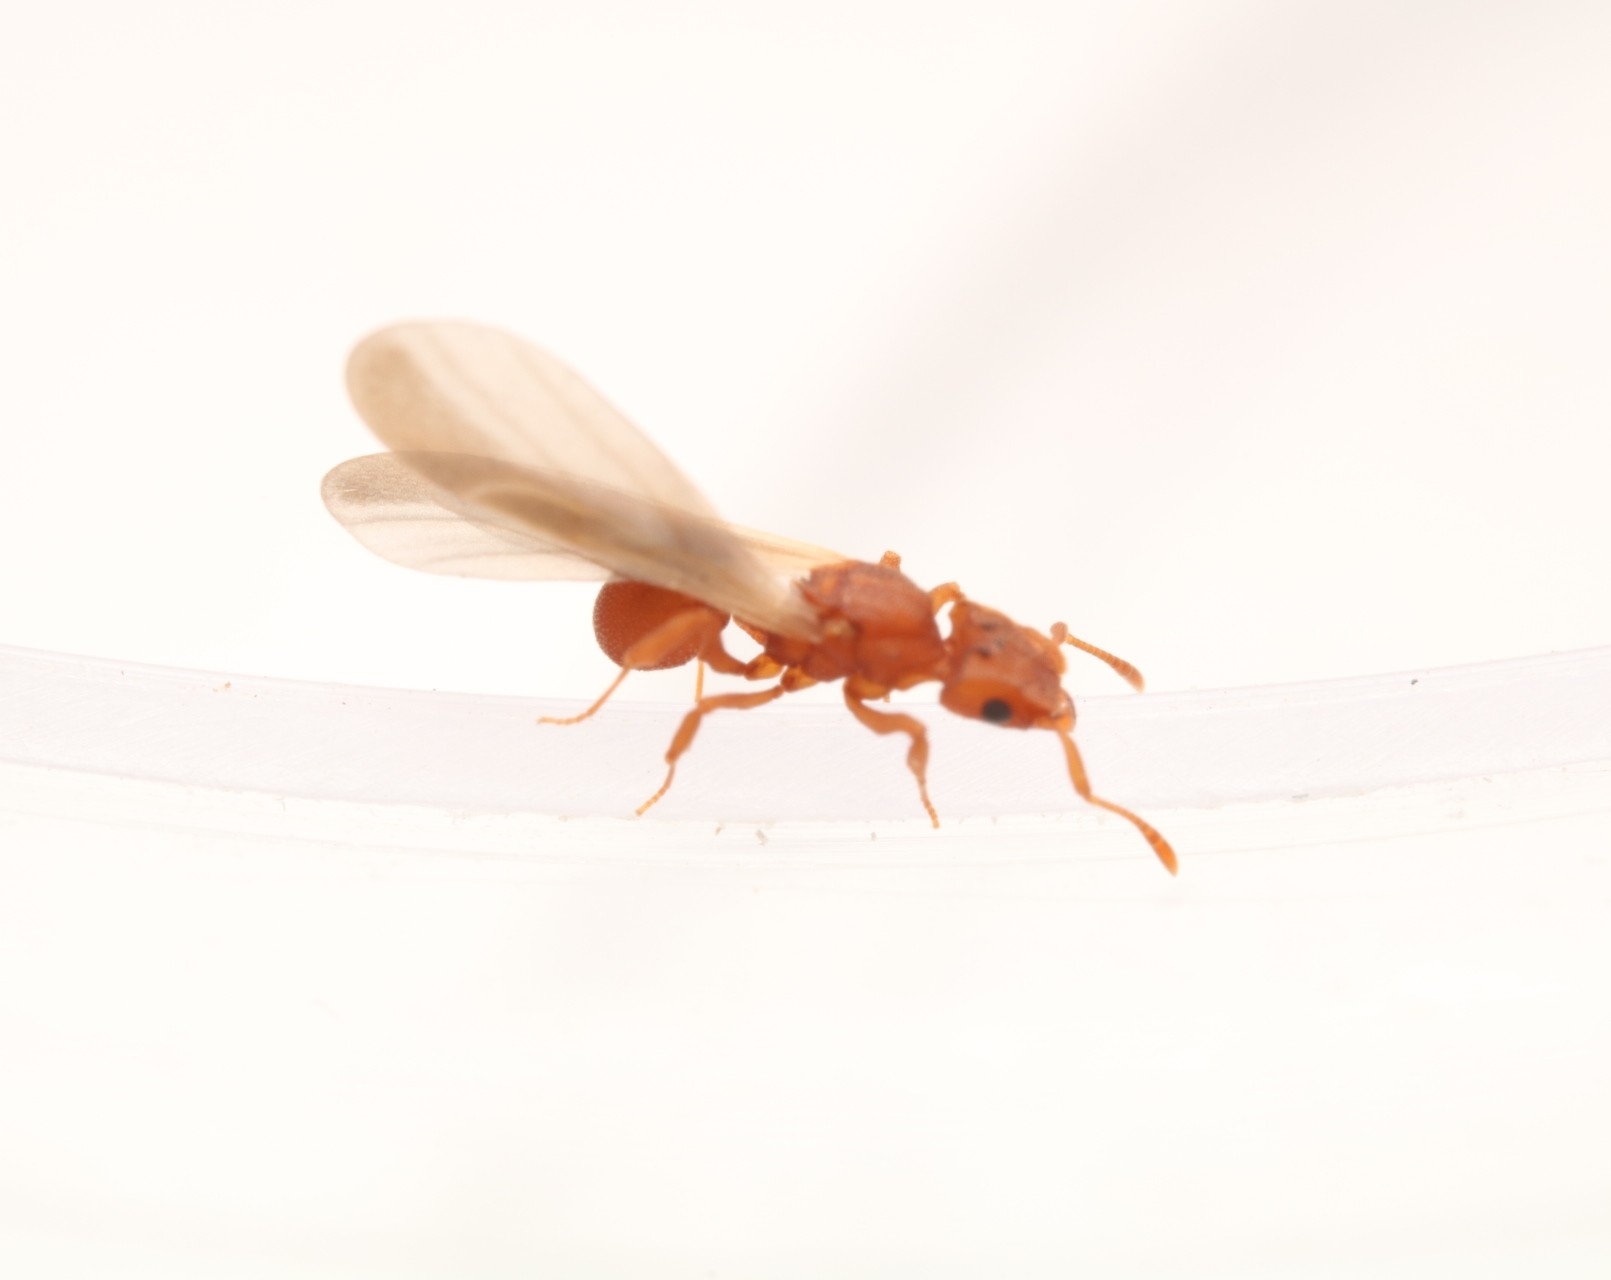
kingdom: Animalia
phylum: Arthropoda
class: Insecta
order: Hymenoptera
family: Formicidae
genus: Cyphomyrmex
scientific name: Cyphomyrmex wheeleri
